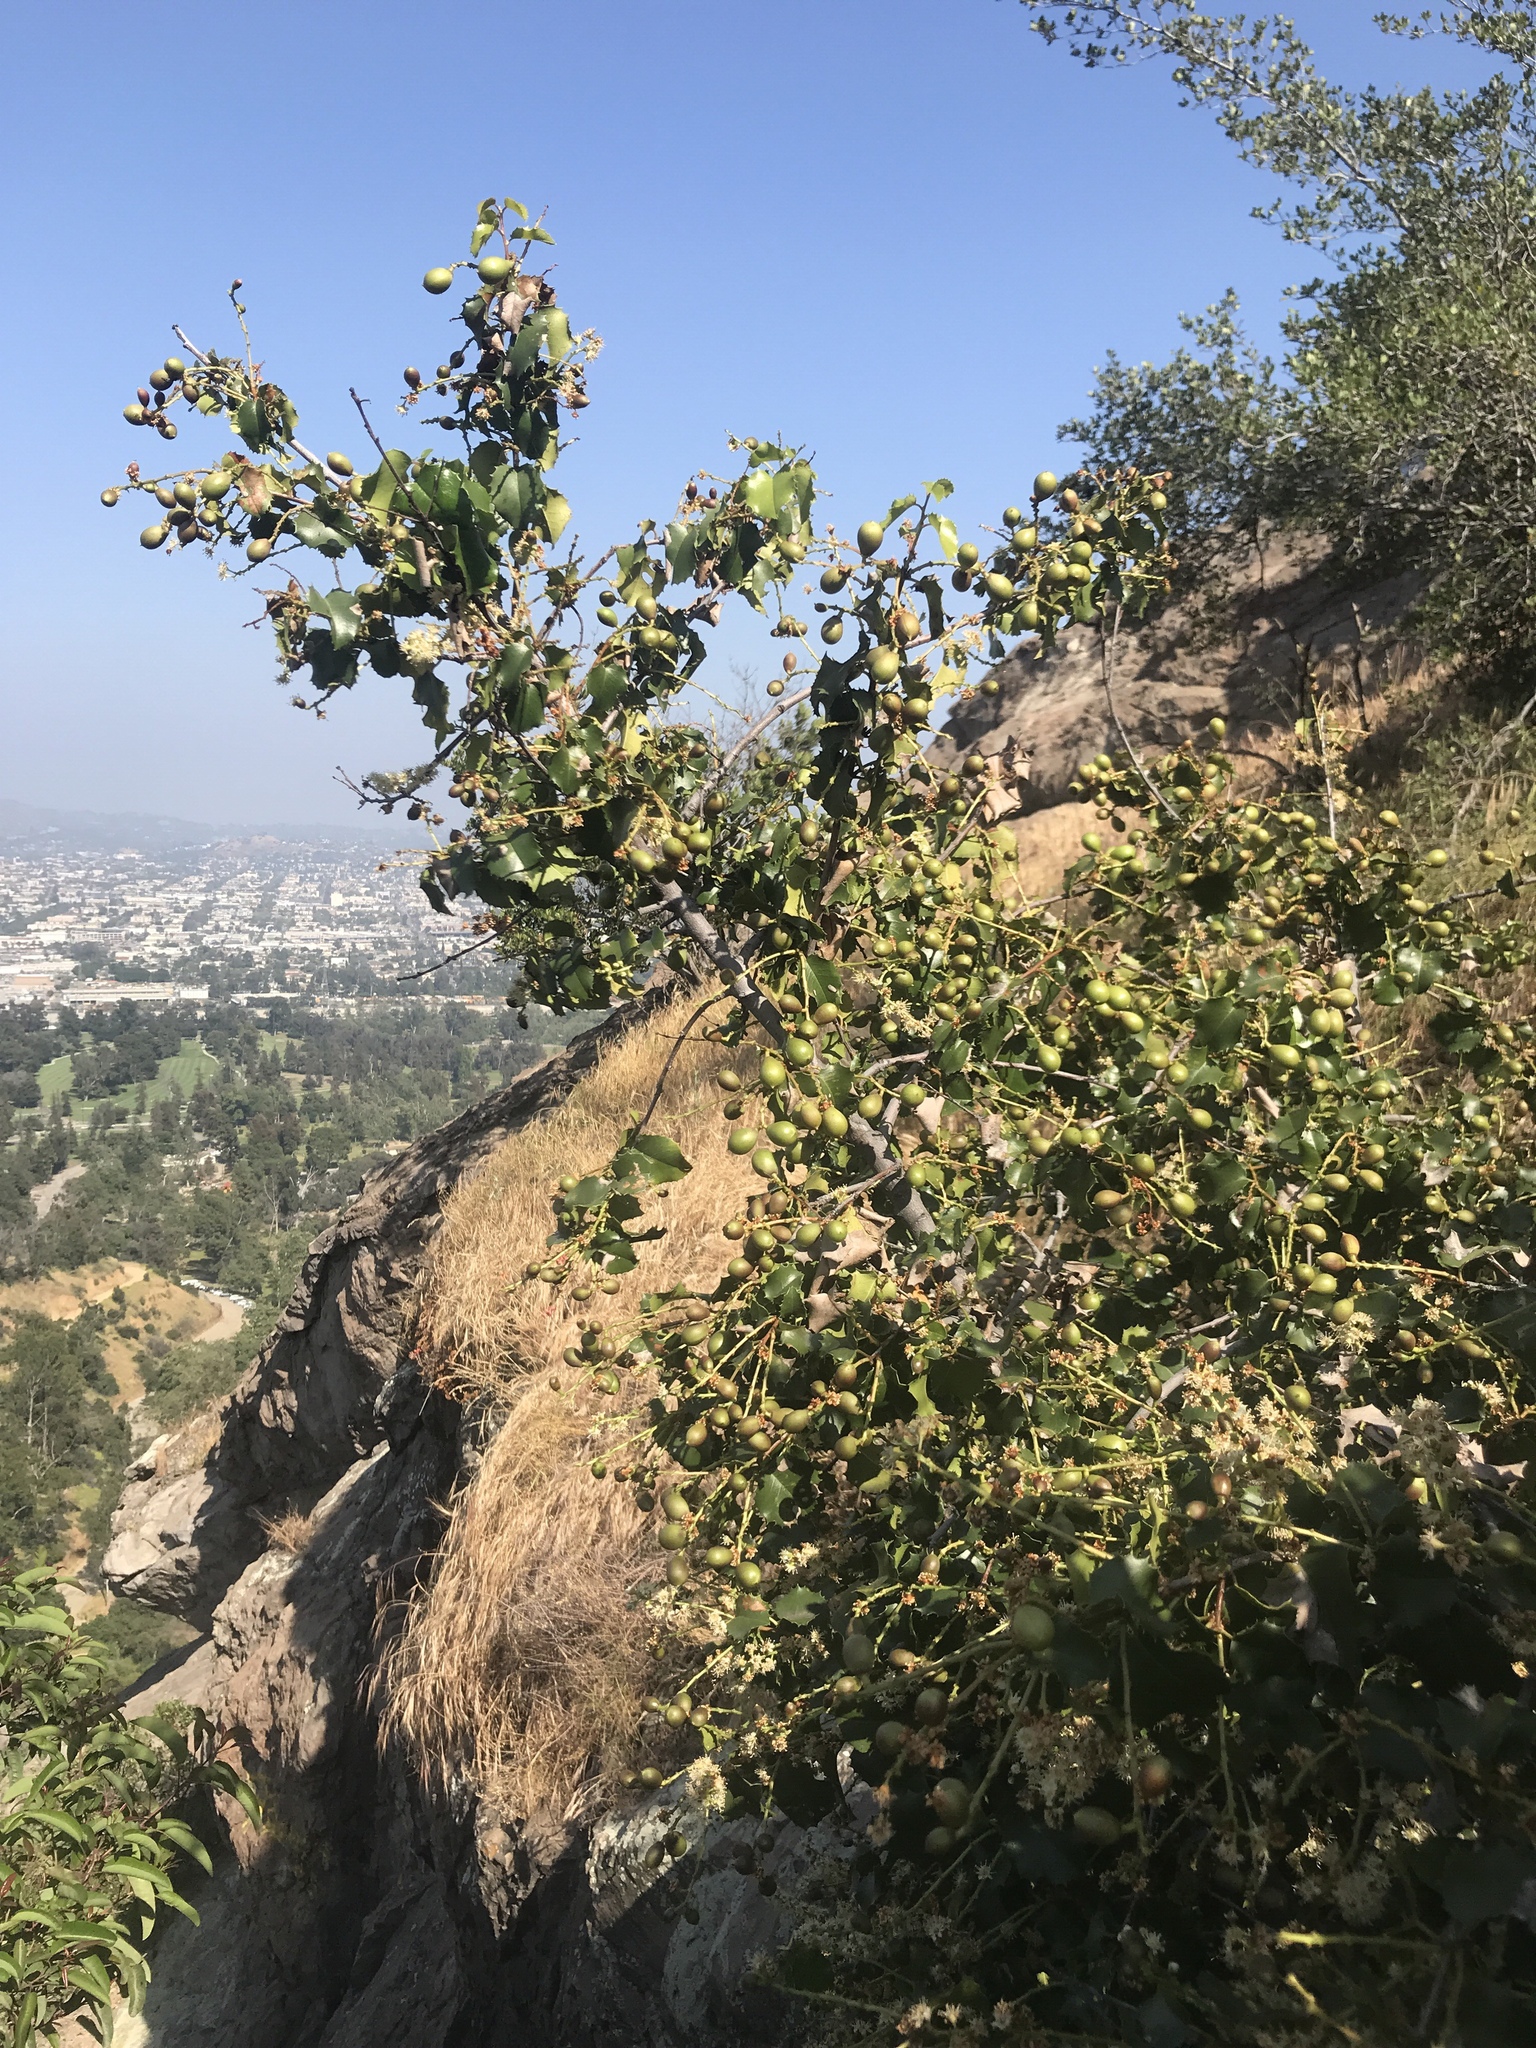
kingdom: Plantae
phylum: Tracheophyta
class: Magnoliopsida
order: Rosales
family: Rosaceae
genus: Prunus
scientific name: Prunus ilicifolia
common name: Hollyleaf cherry
